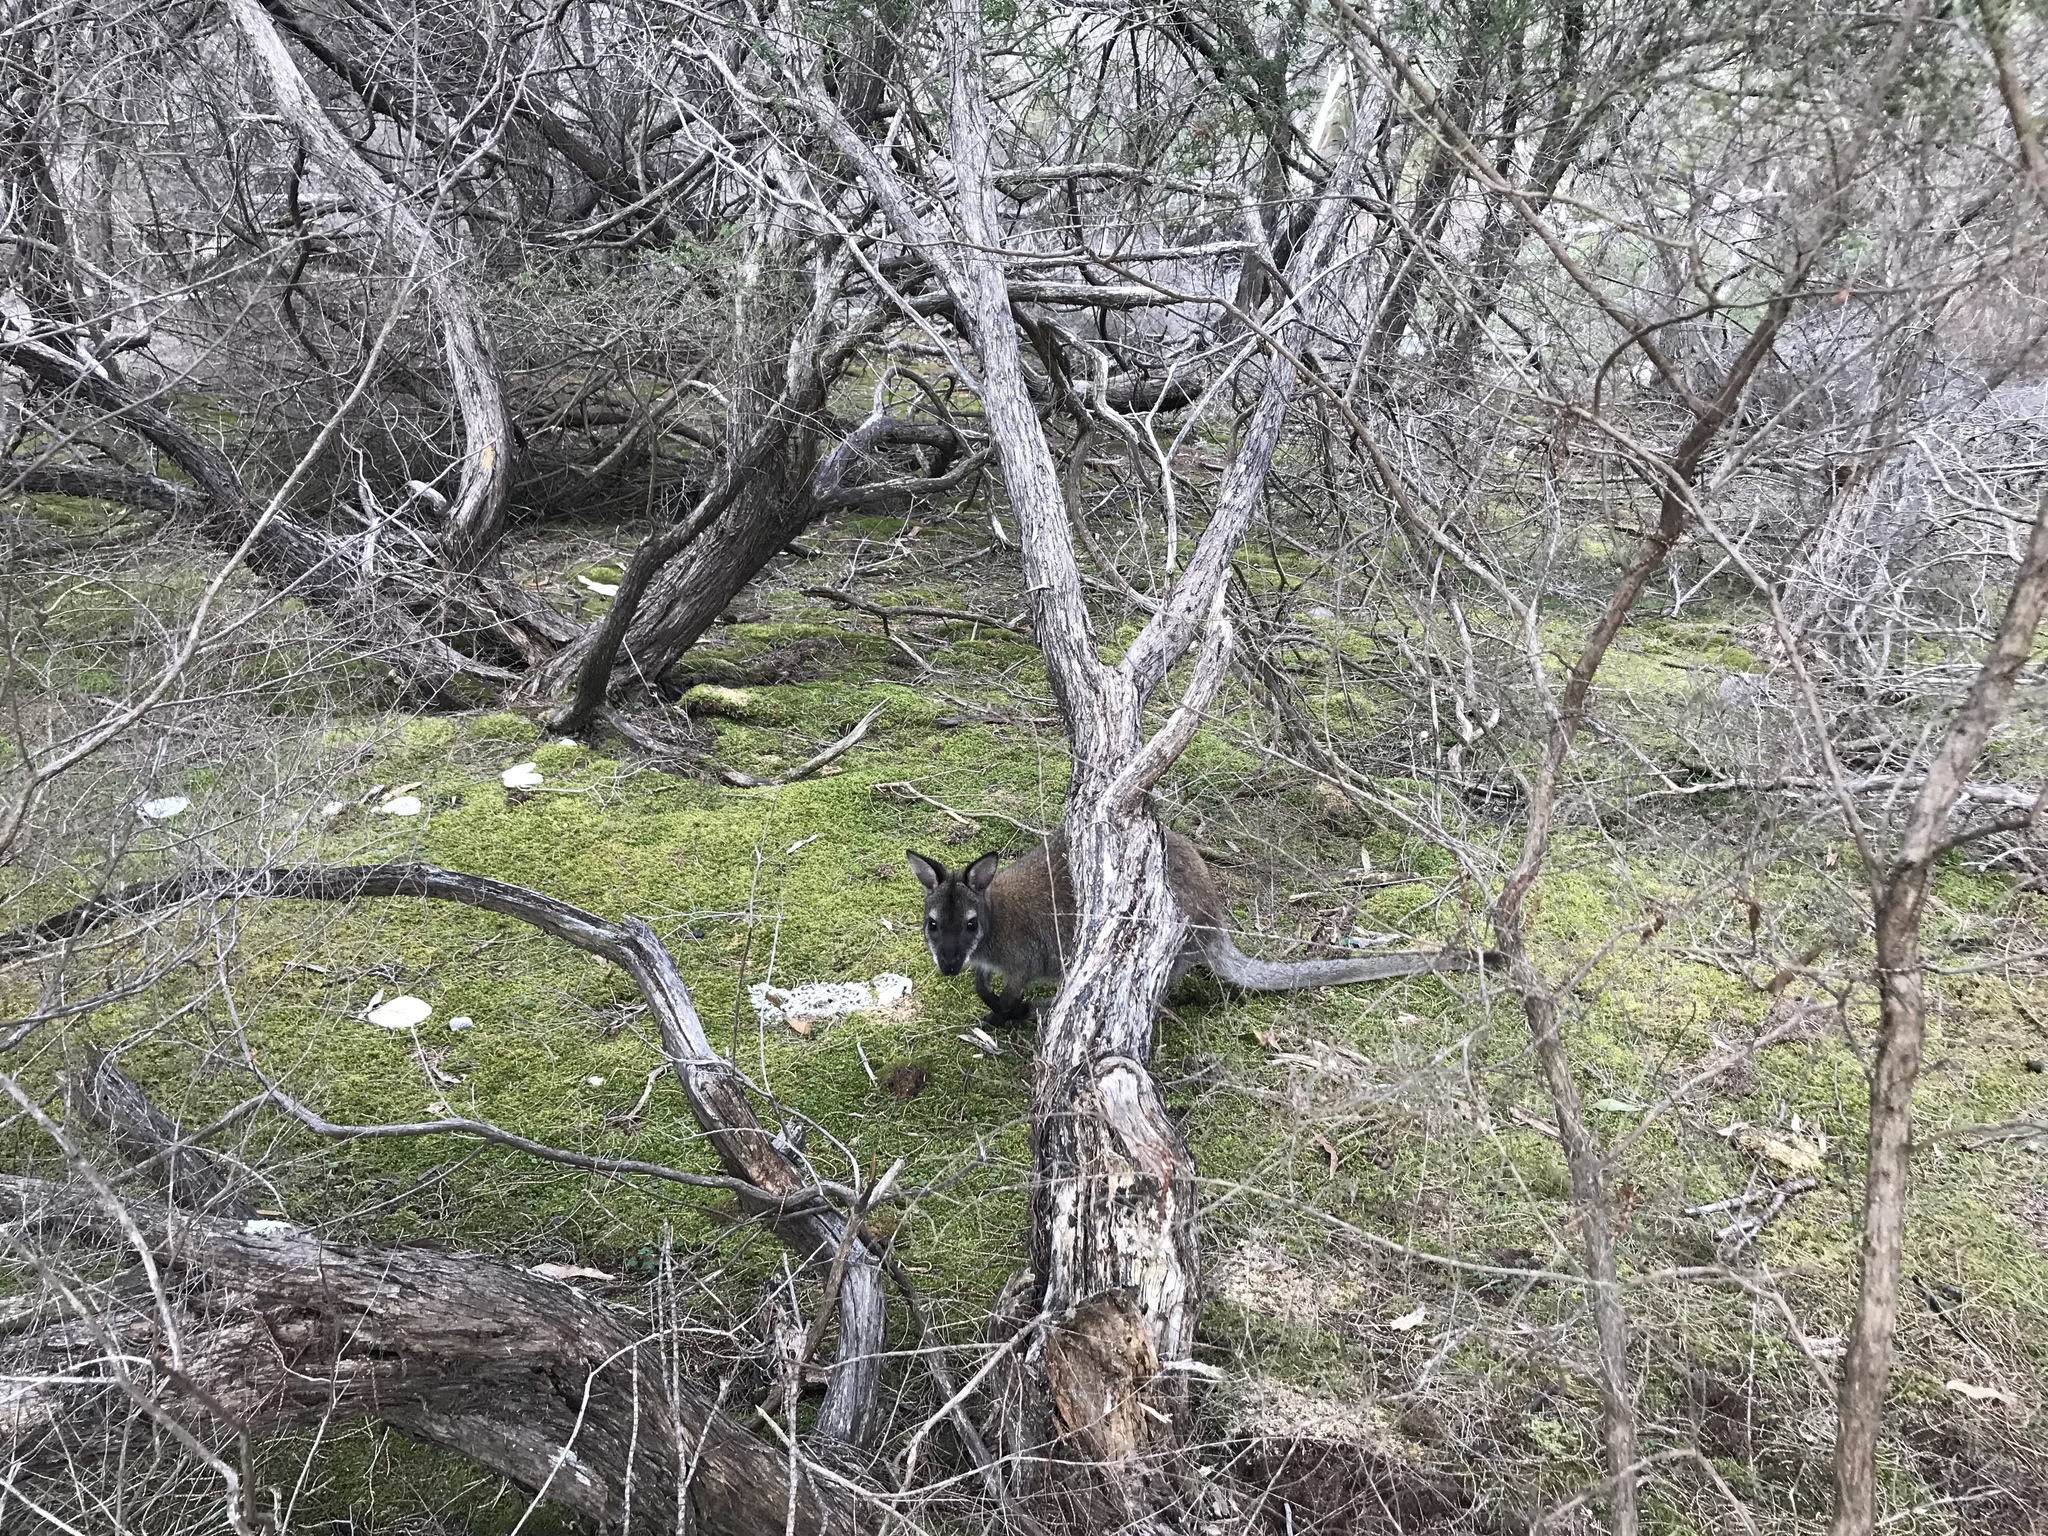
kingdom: Animalia
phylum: Chordata
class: Mammalia
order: Diprotodontia
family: Macropodidae
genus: Notamacropus
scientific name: Notamacropus rufogriseus
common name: Red-necked wallaby
